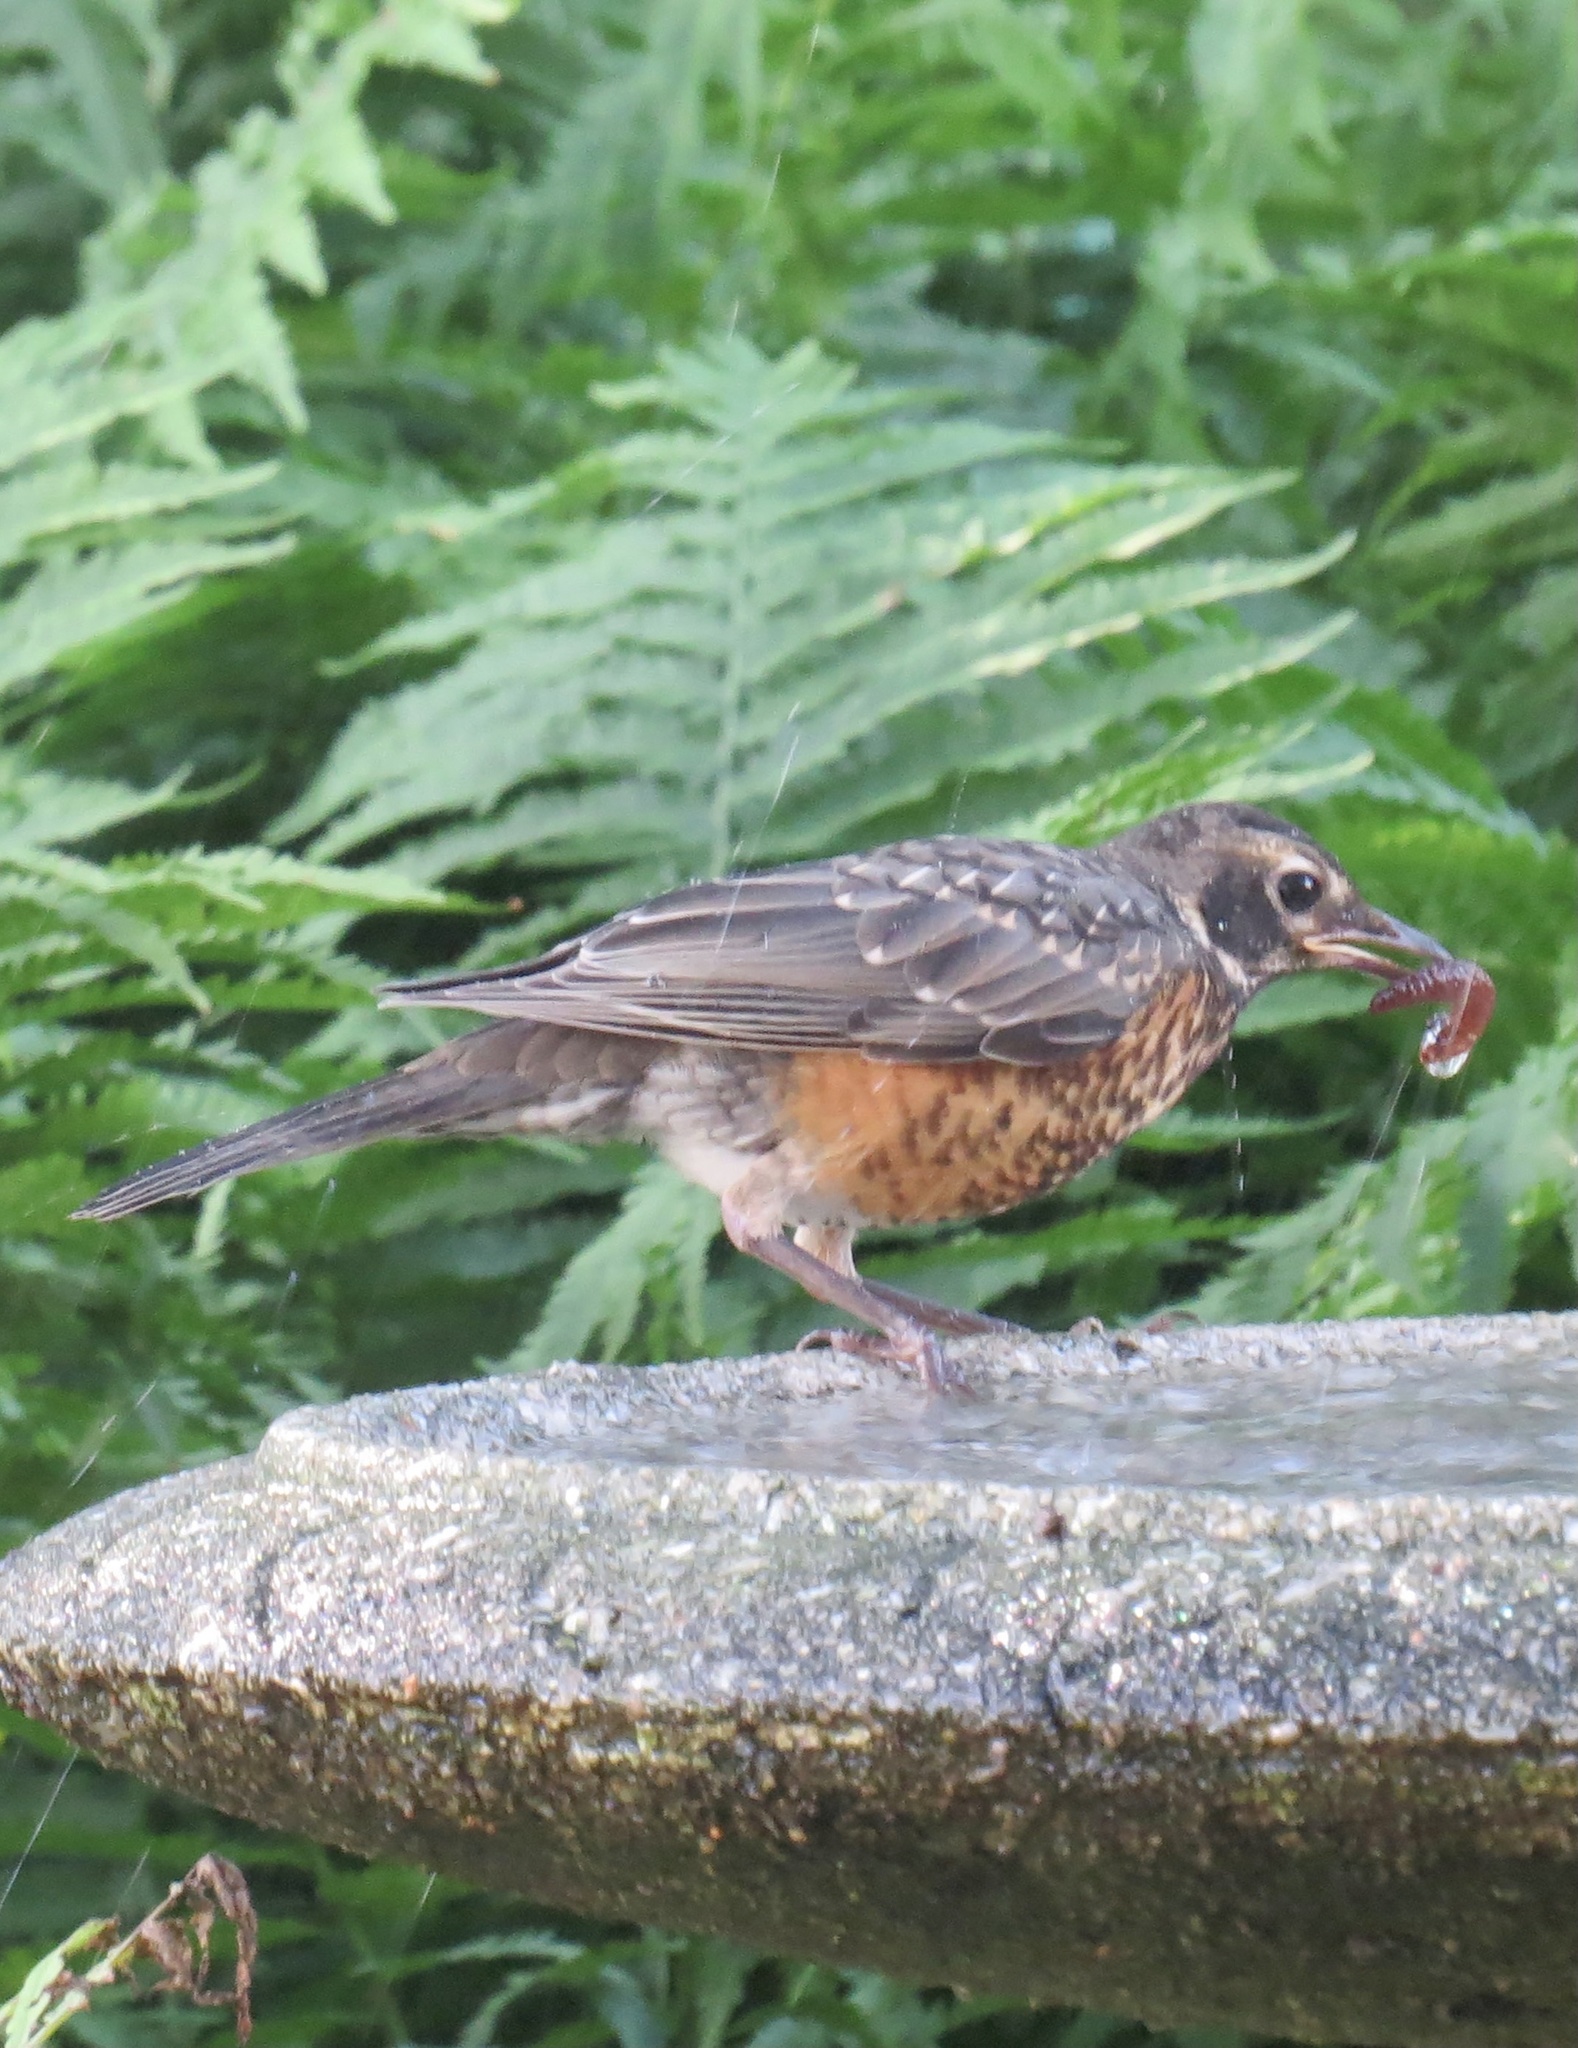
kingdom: Animalia
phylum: Chordata
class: Aves
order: Passeriformes
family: Turdidae
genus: Turdus
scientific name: Turdus migratorius
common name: American robin
